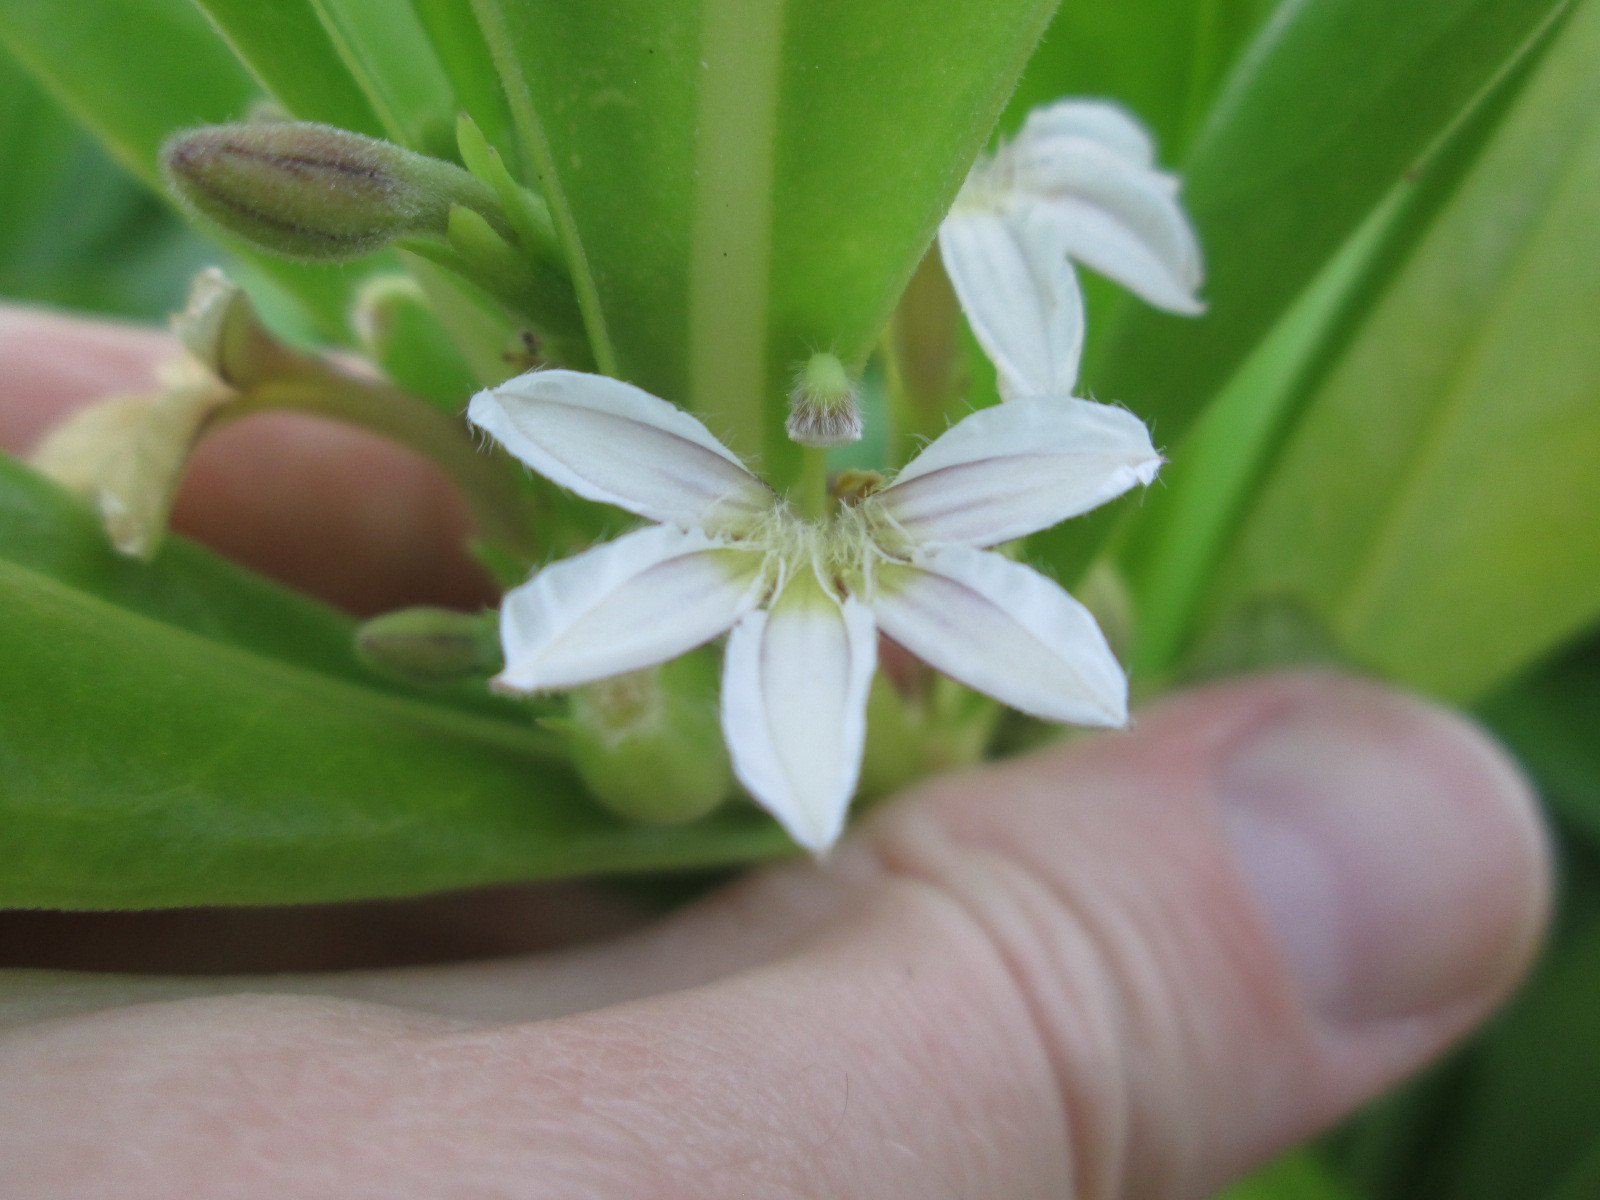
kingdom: Plantae
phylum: Tracheophyta
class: Magnoliopsida
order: Asterales
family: Goodeniaceae
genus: Scaevola
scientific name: Scaevola taccada
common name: Sea lettucetree
